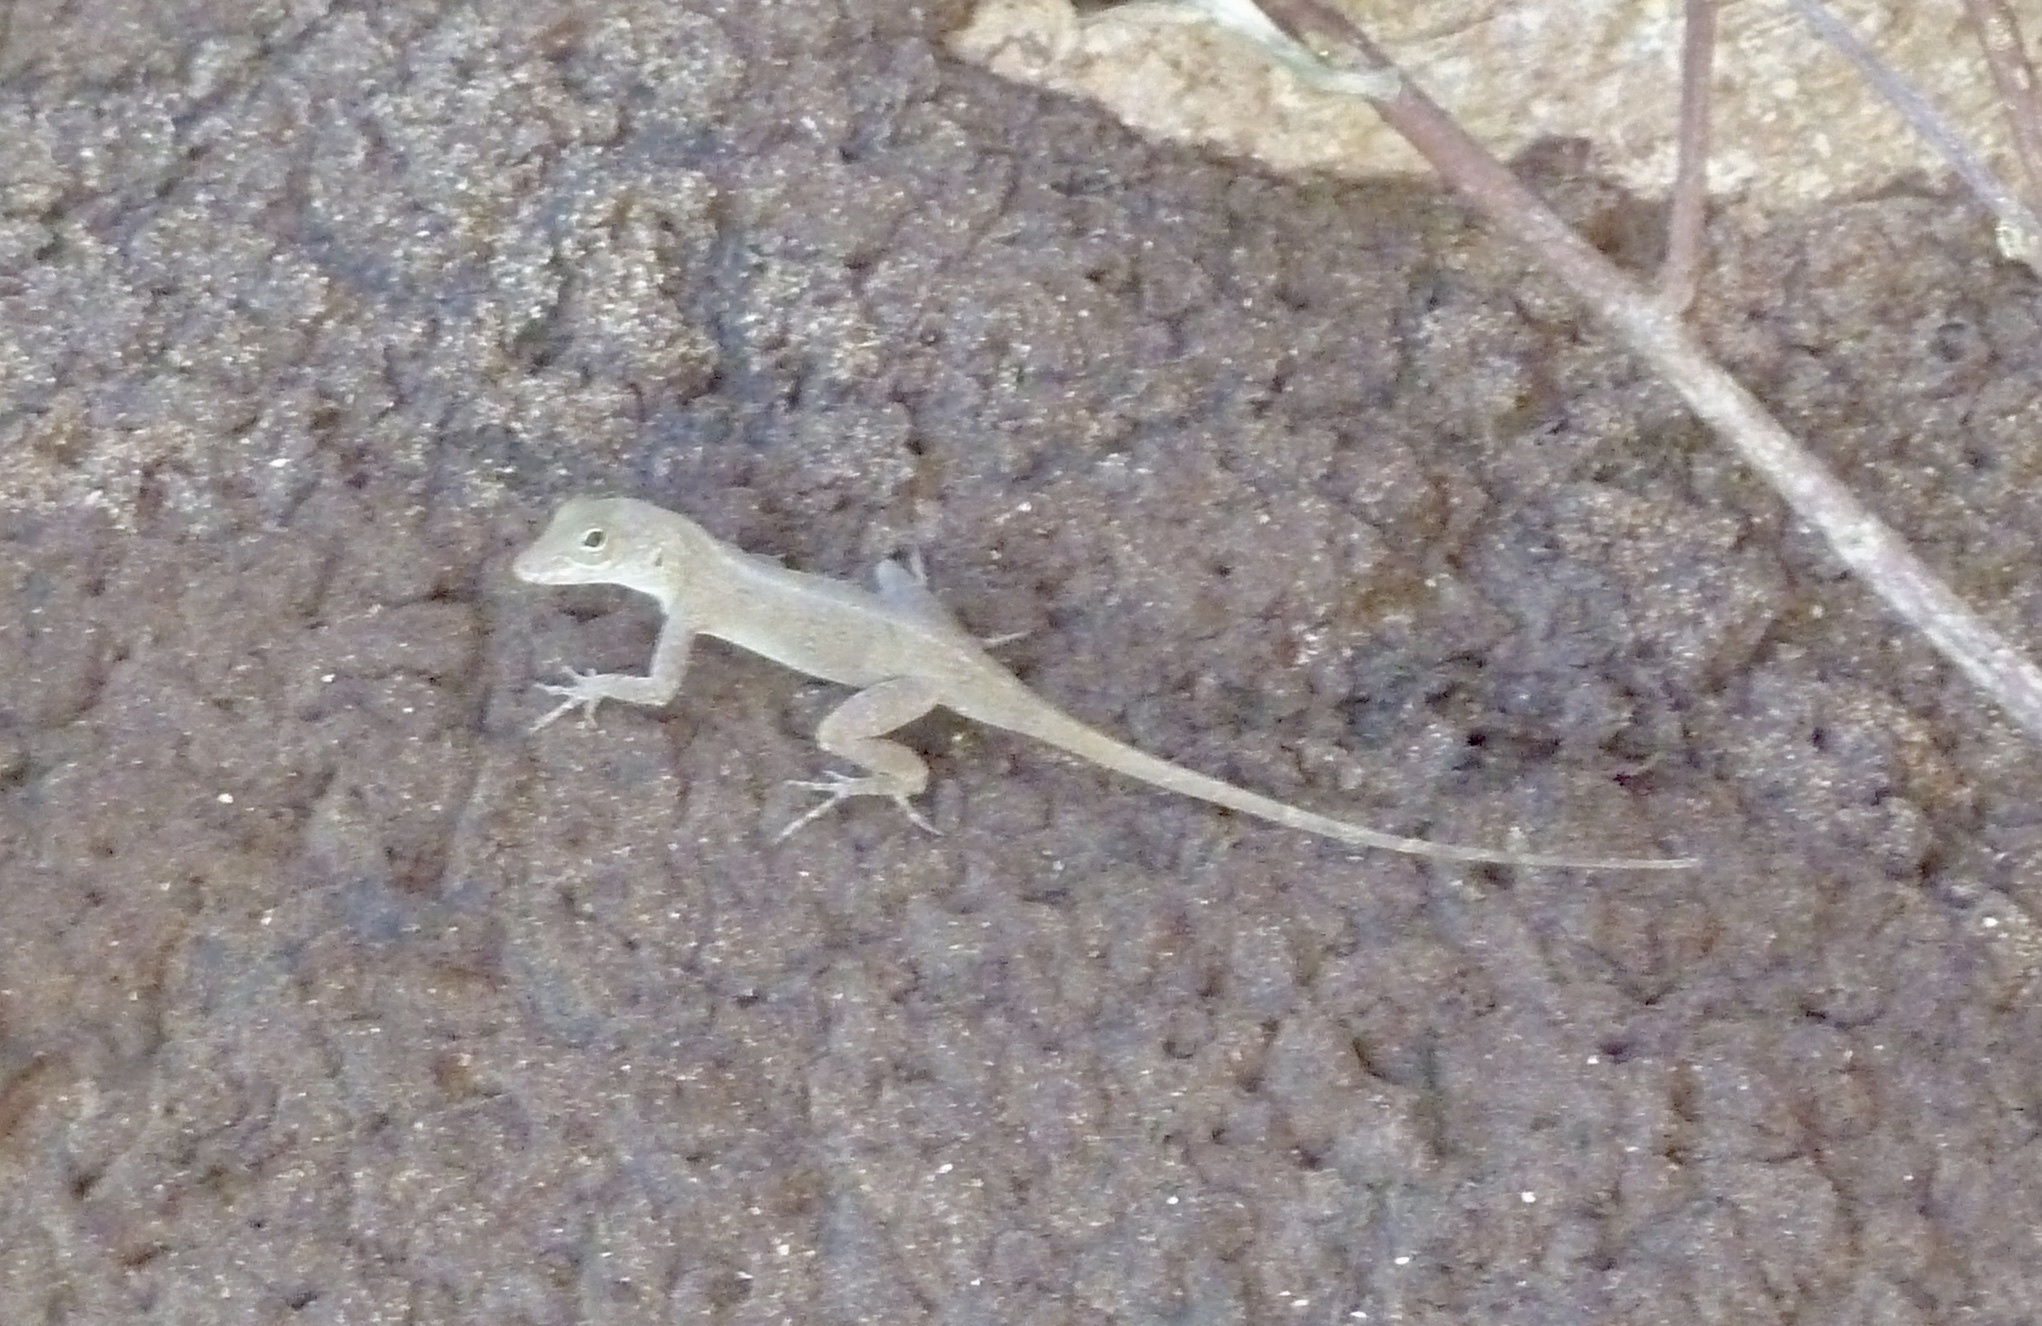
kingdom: Animalia
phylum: Chordata
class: Squamata
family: Dactyloidae
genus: Anolis
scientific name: Anolis cristatellus
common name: Crested anole
